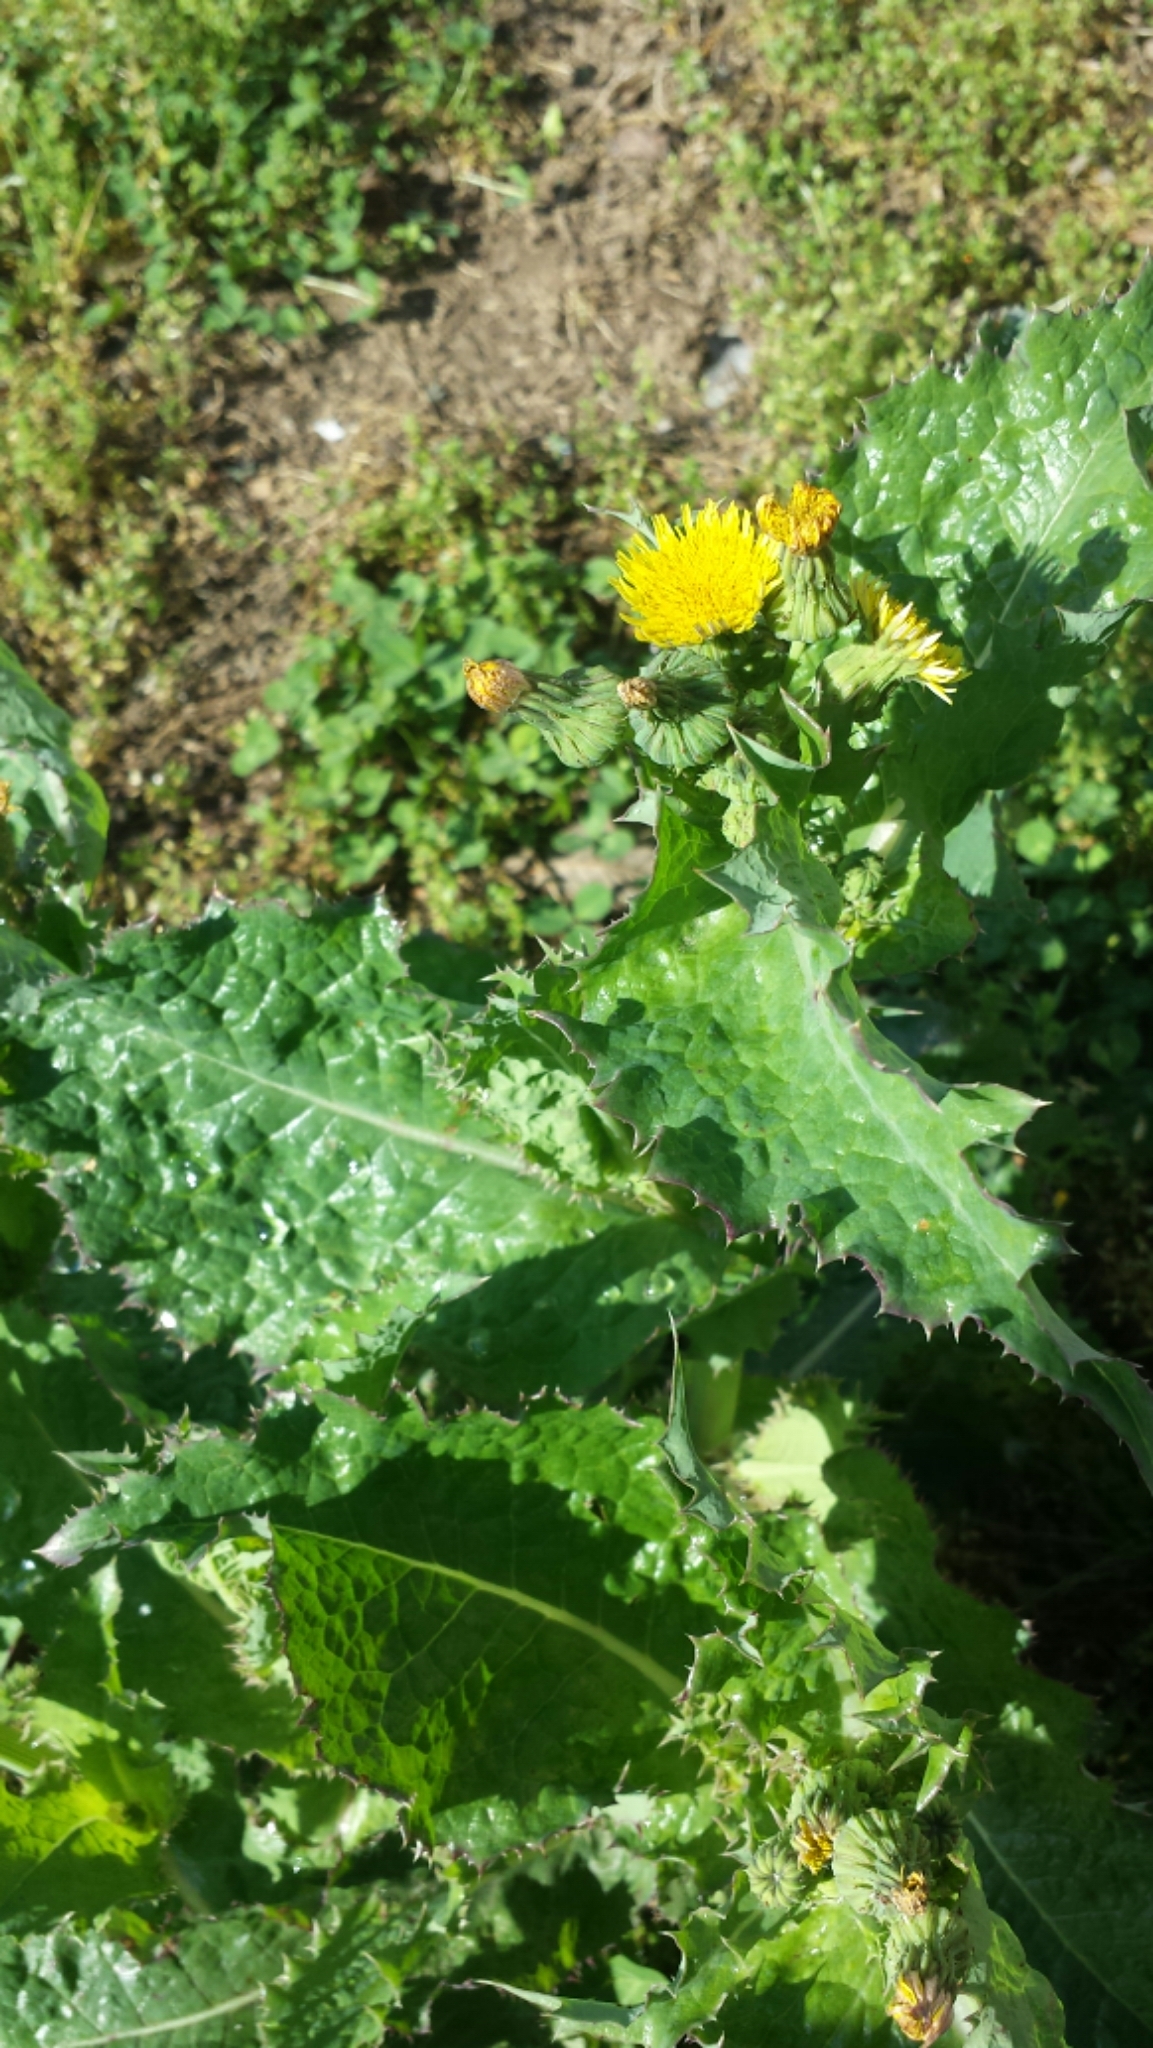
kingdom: Plantae
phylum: Tracheophyta
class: Magnoliopsida
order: Asterales
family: Asteraceae
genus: Sonchus
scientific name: Sonchus asper
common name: Prickly sow-thistle
